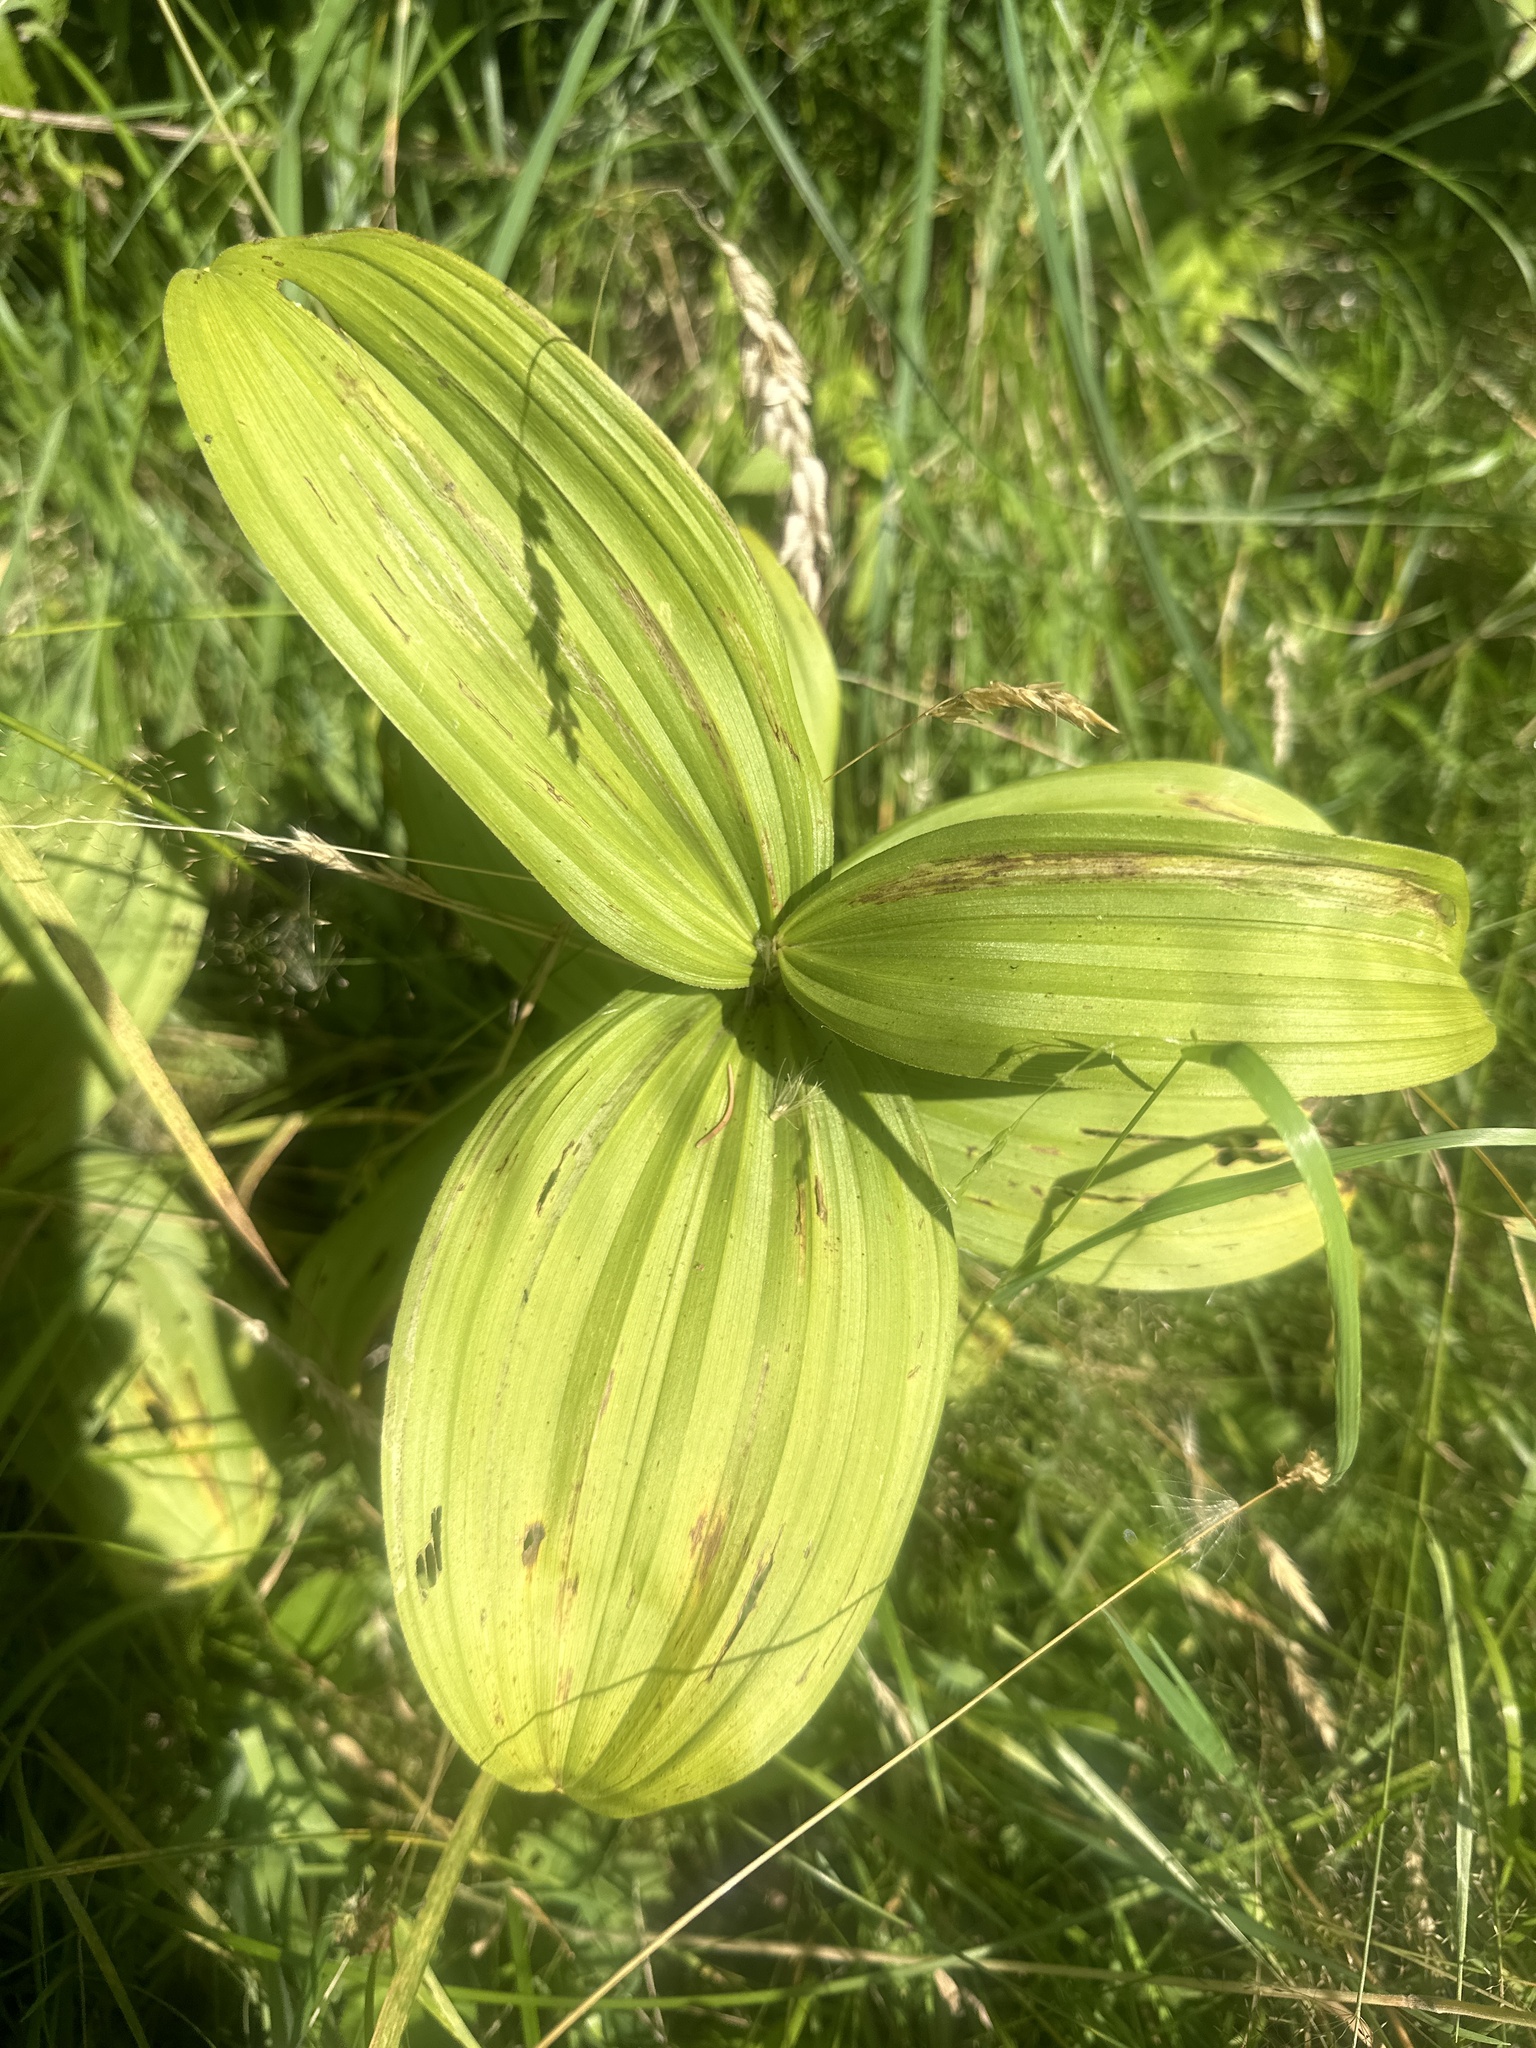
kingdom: Plantae
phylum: Tracheophyta
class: Liliopsida
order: Liliales
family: Melanthiaceae
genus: Veratrum
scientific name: Veratrum album
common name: White veratrum
